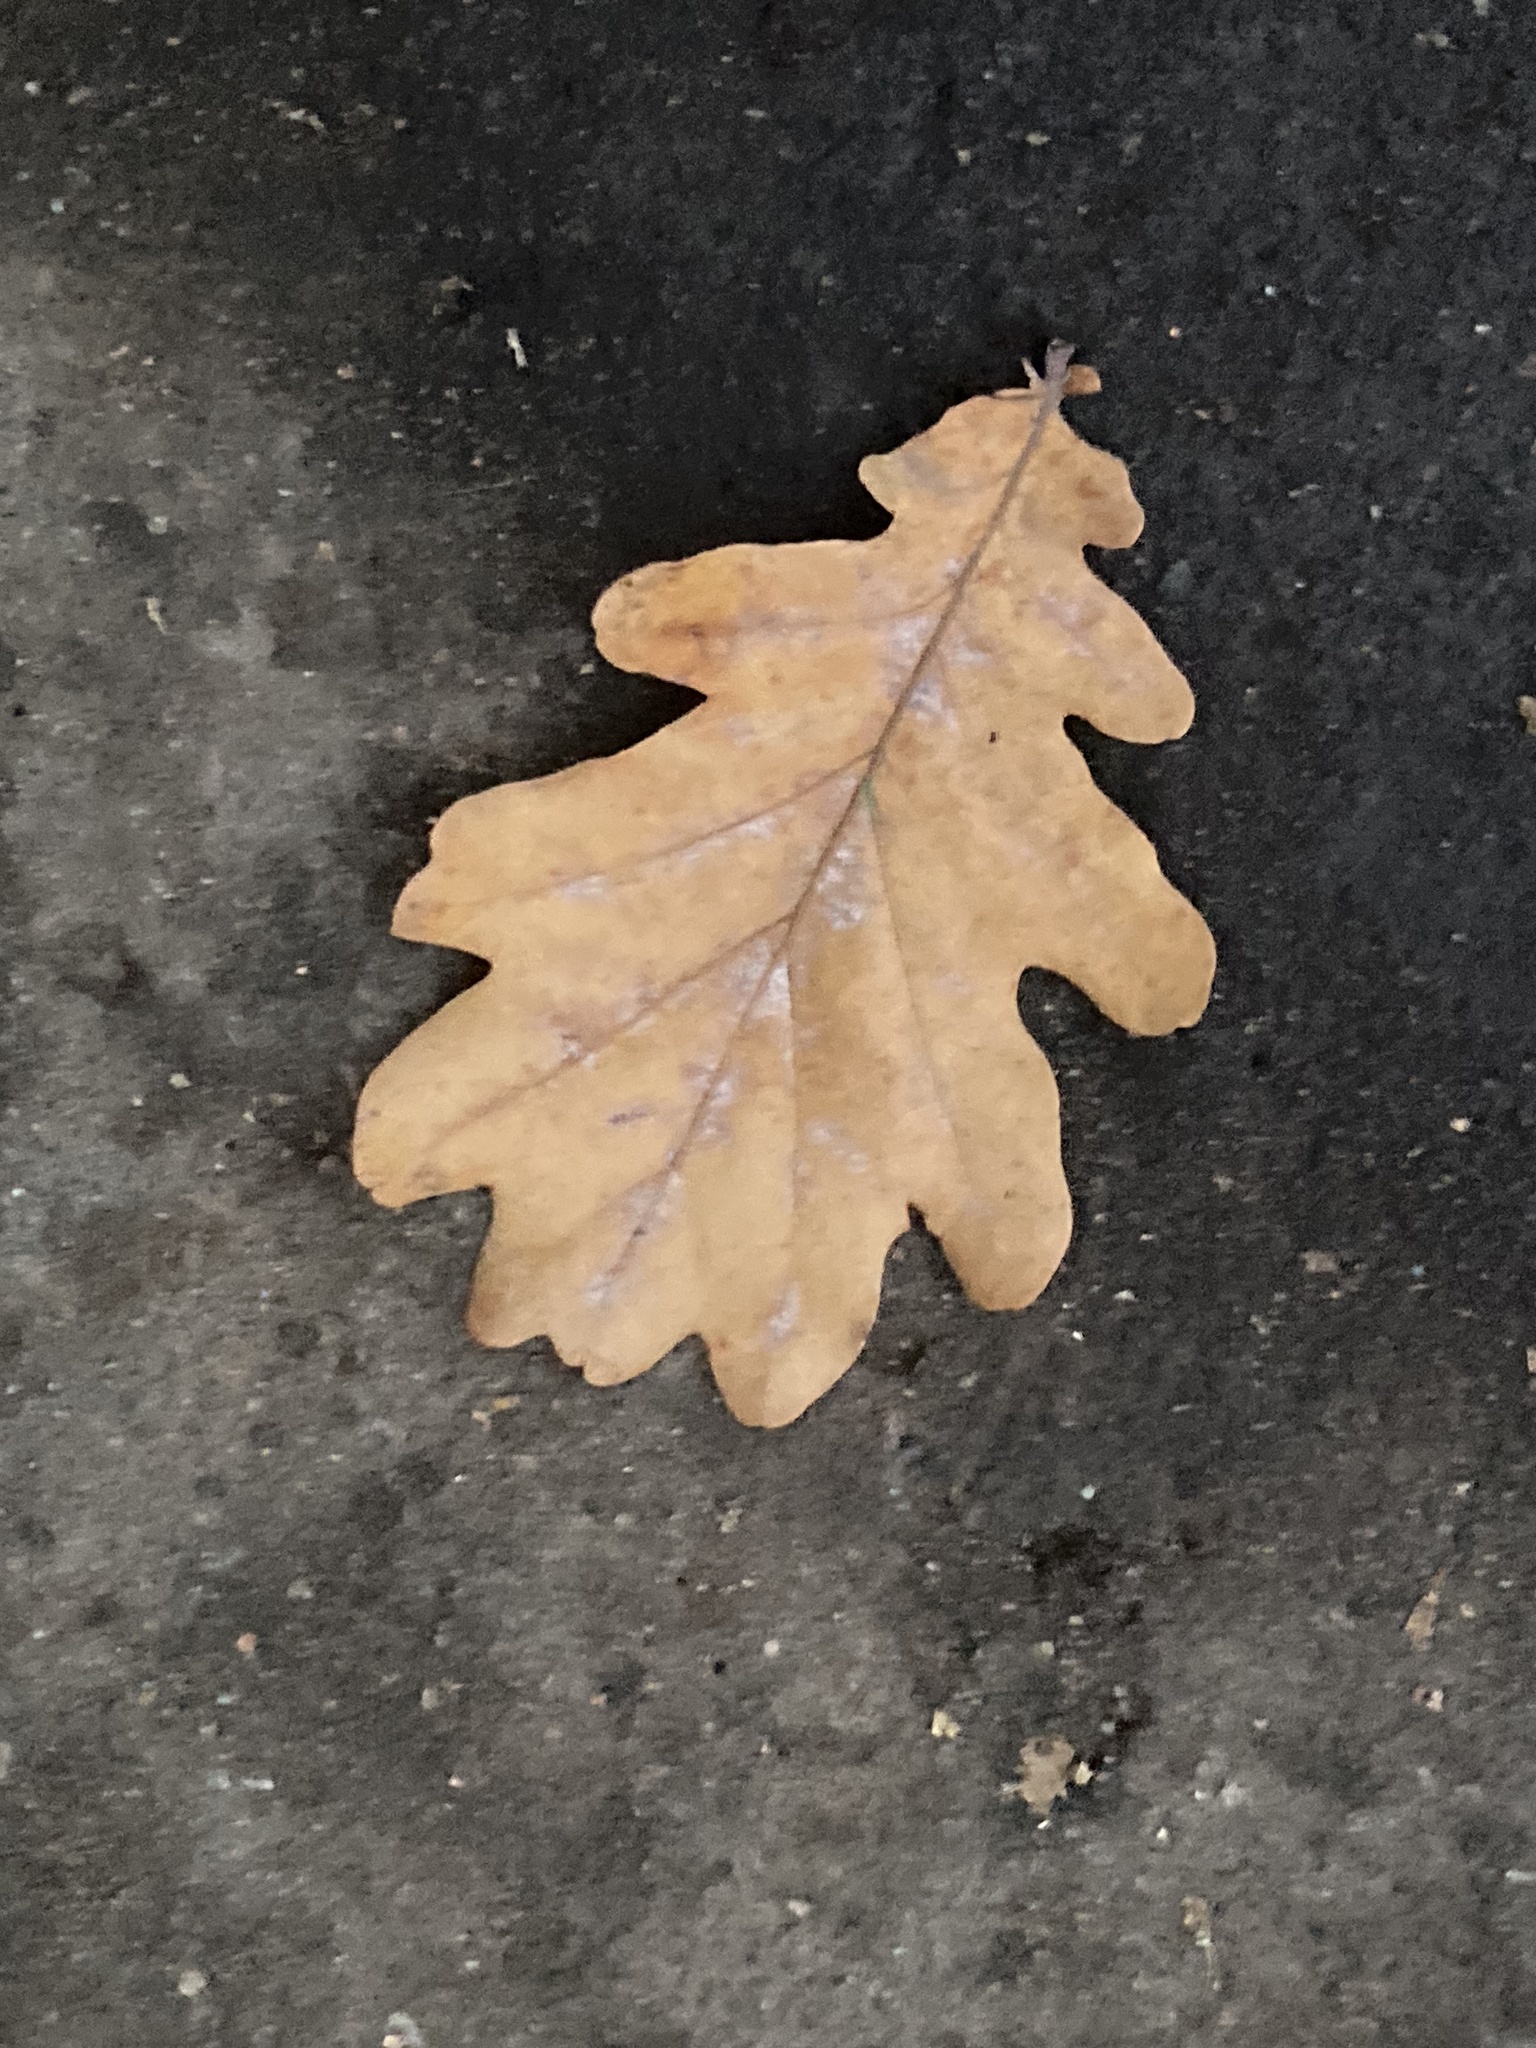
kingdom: Plantae
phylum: Tracheophyta
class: Magnoliopsida
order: Fagales
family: Fagaceae
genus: Quercus
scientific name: Quercus robur
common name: Pedunculate oak
